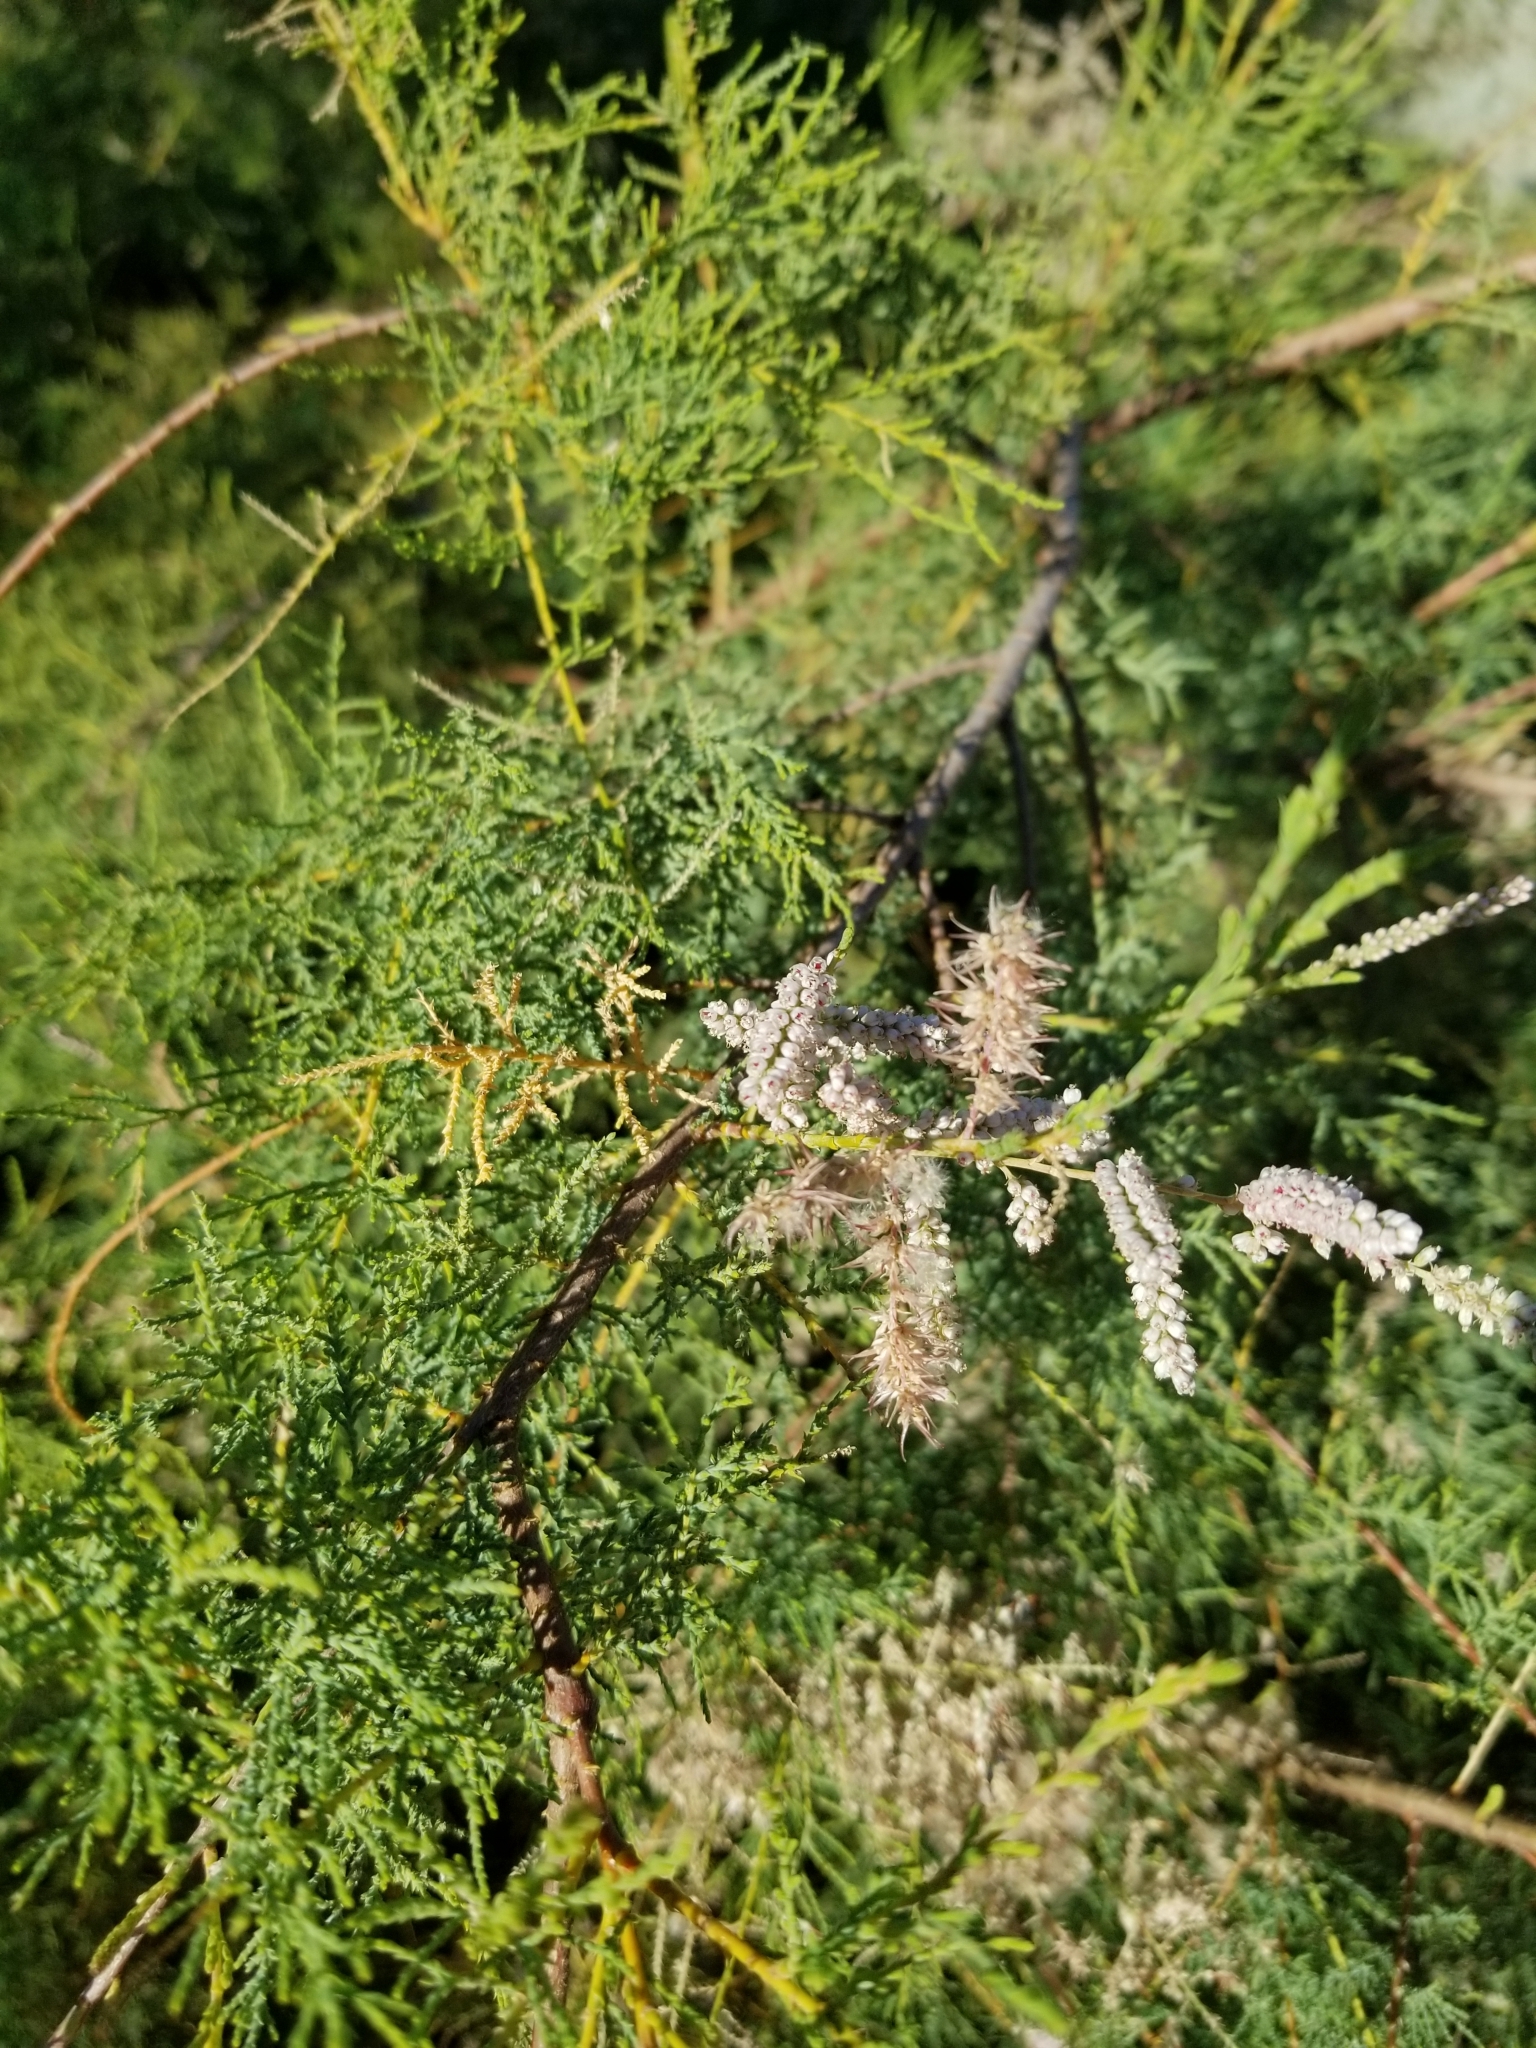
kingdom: Plantae
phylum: Tracheophyta
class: Magnoliopsida
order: Caryophyllales
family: Tamaricaceae
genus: Tamarix
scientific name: Tamarix ramosissima
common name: Pink tamarisk
